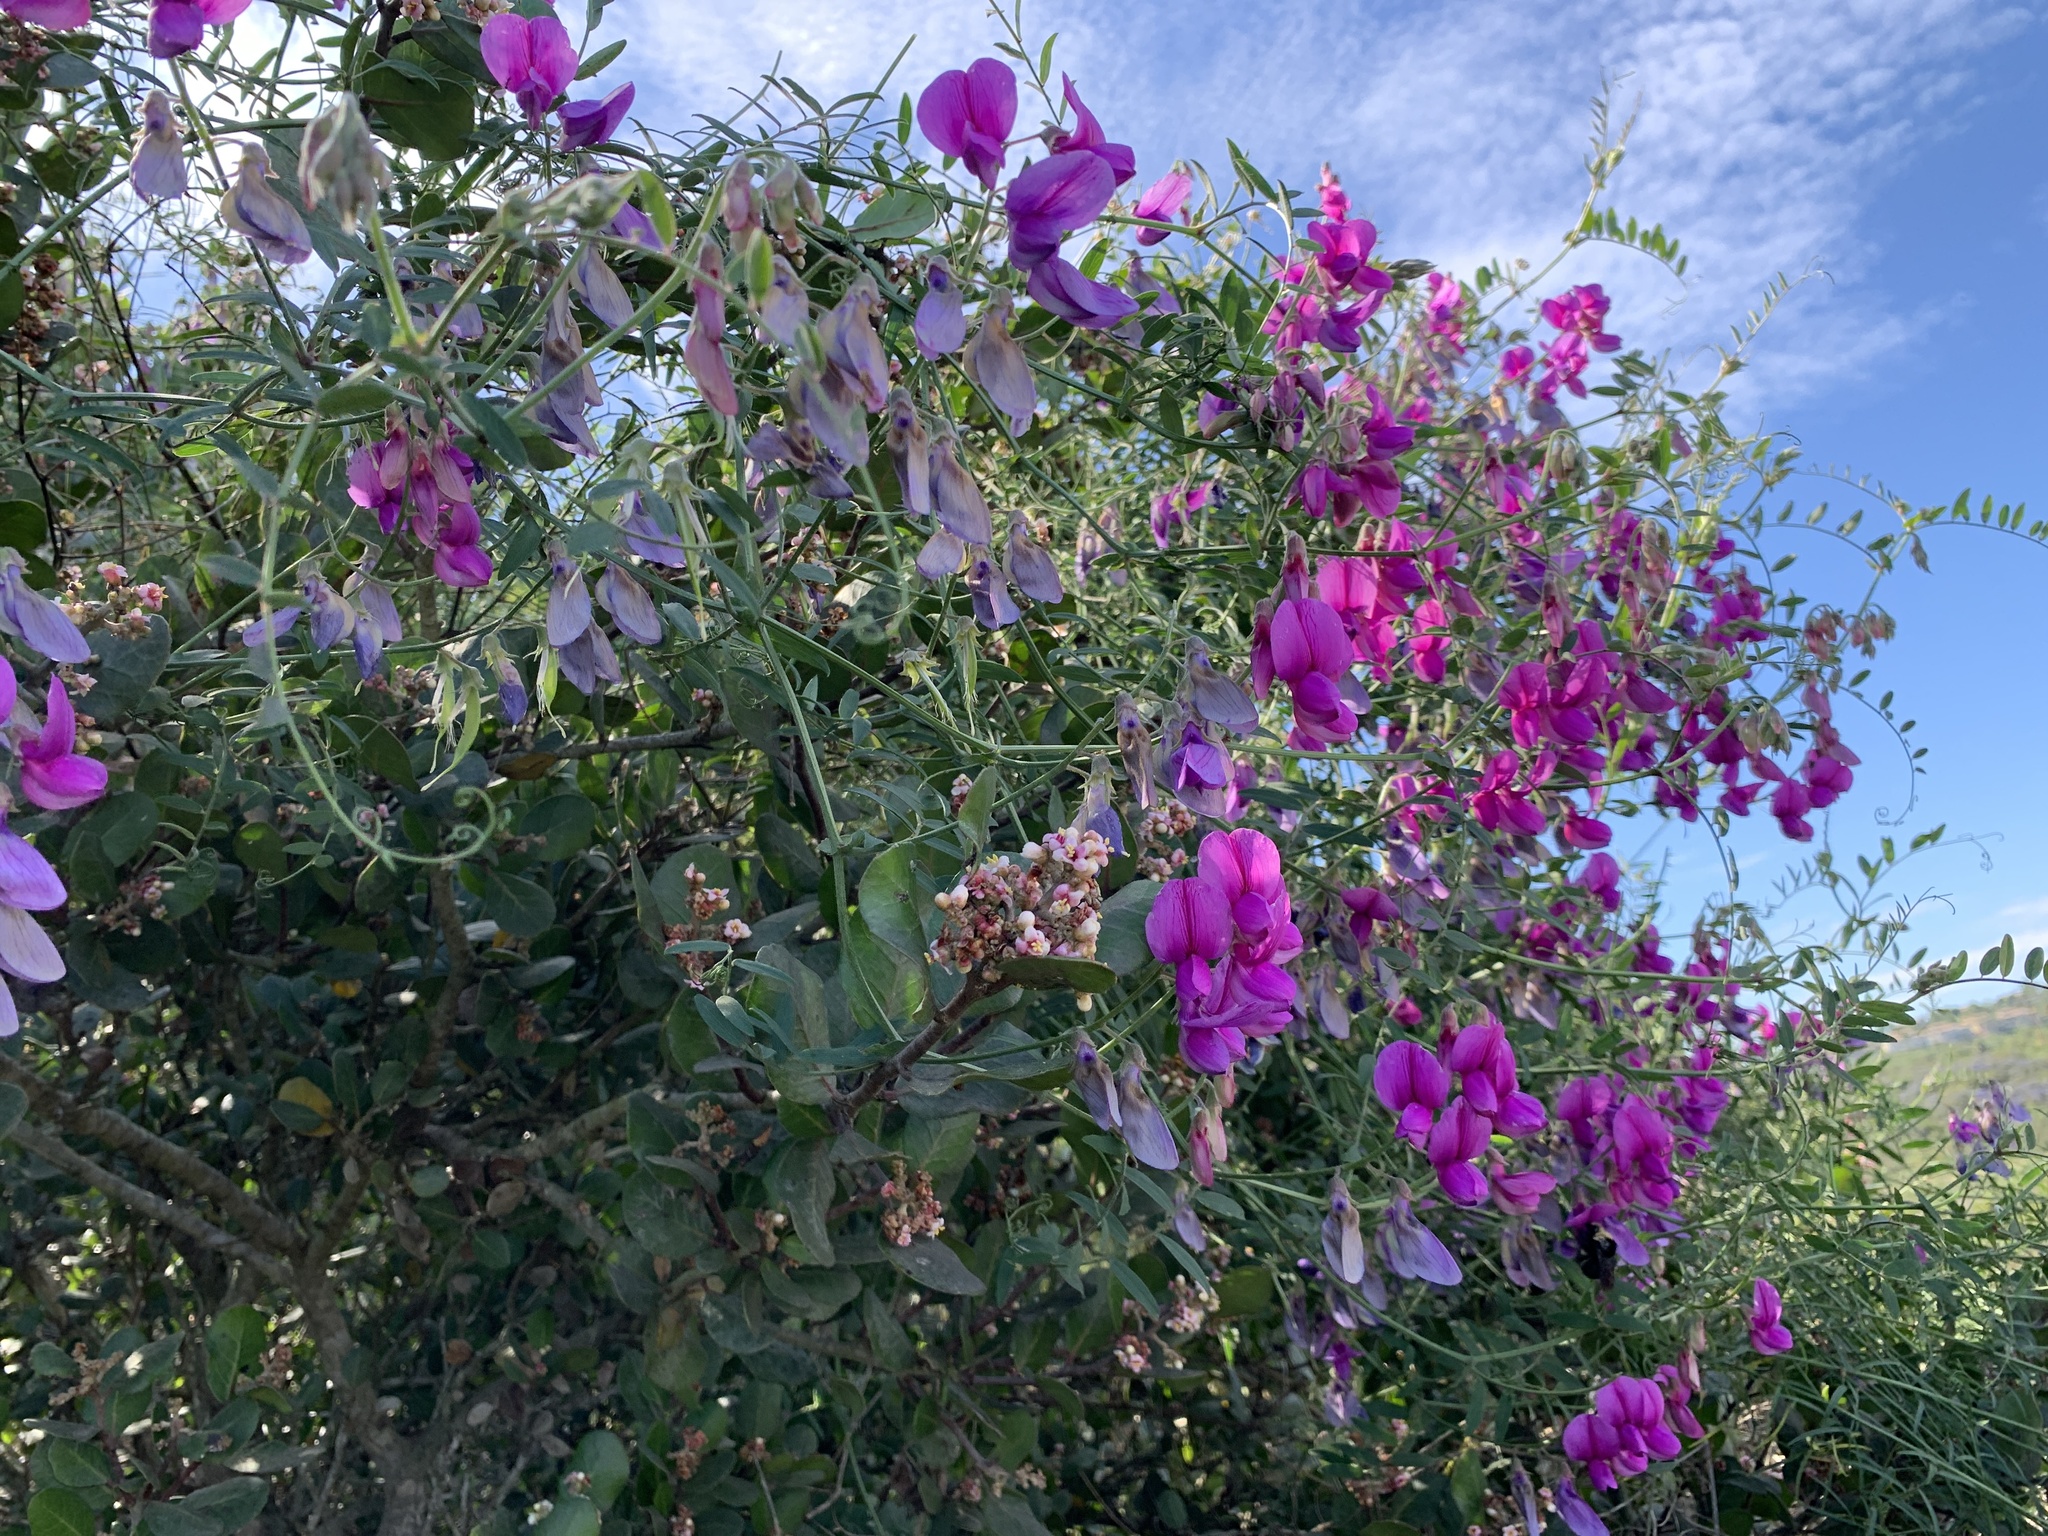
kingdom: Plantae
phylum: Tracheophyta
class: Magnoliopsida
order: Fabales
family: Fabaceae
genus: Lathyrus
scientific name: Lathyrus vestitus
